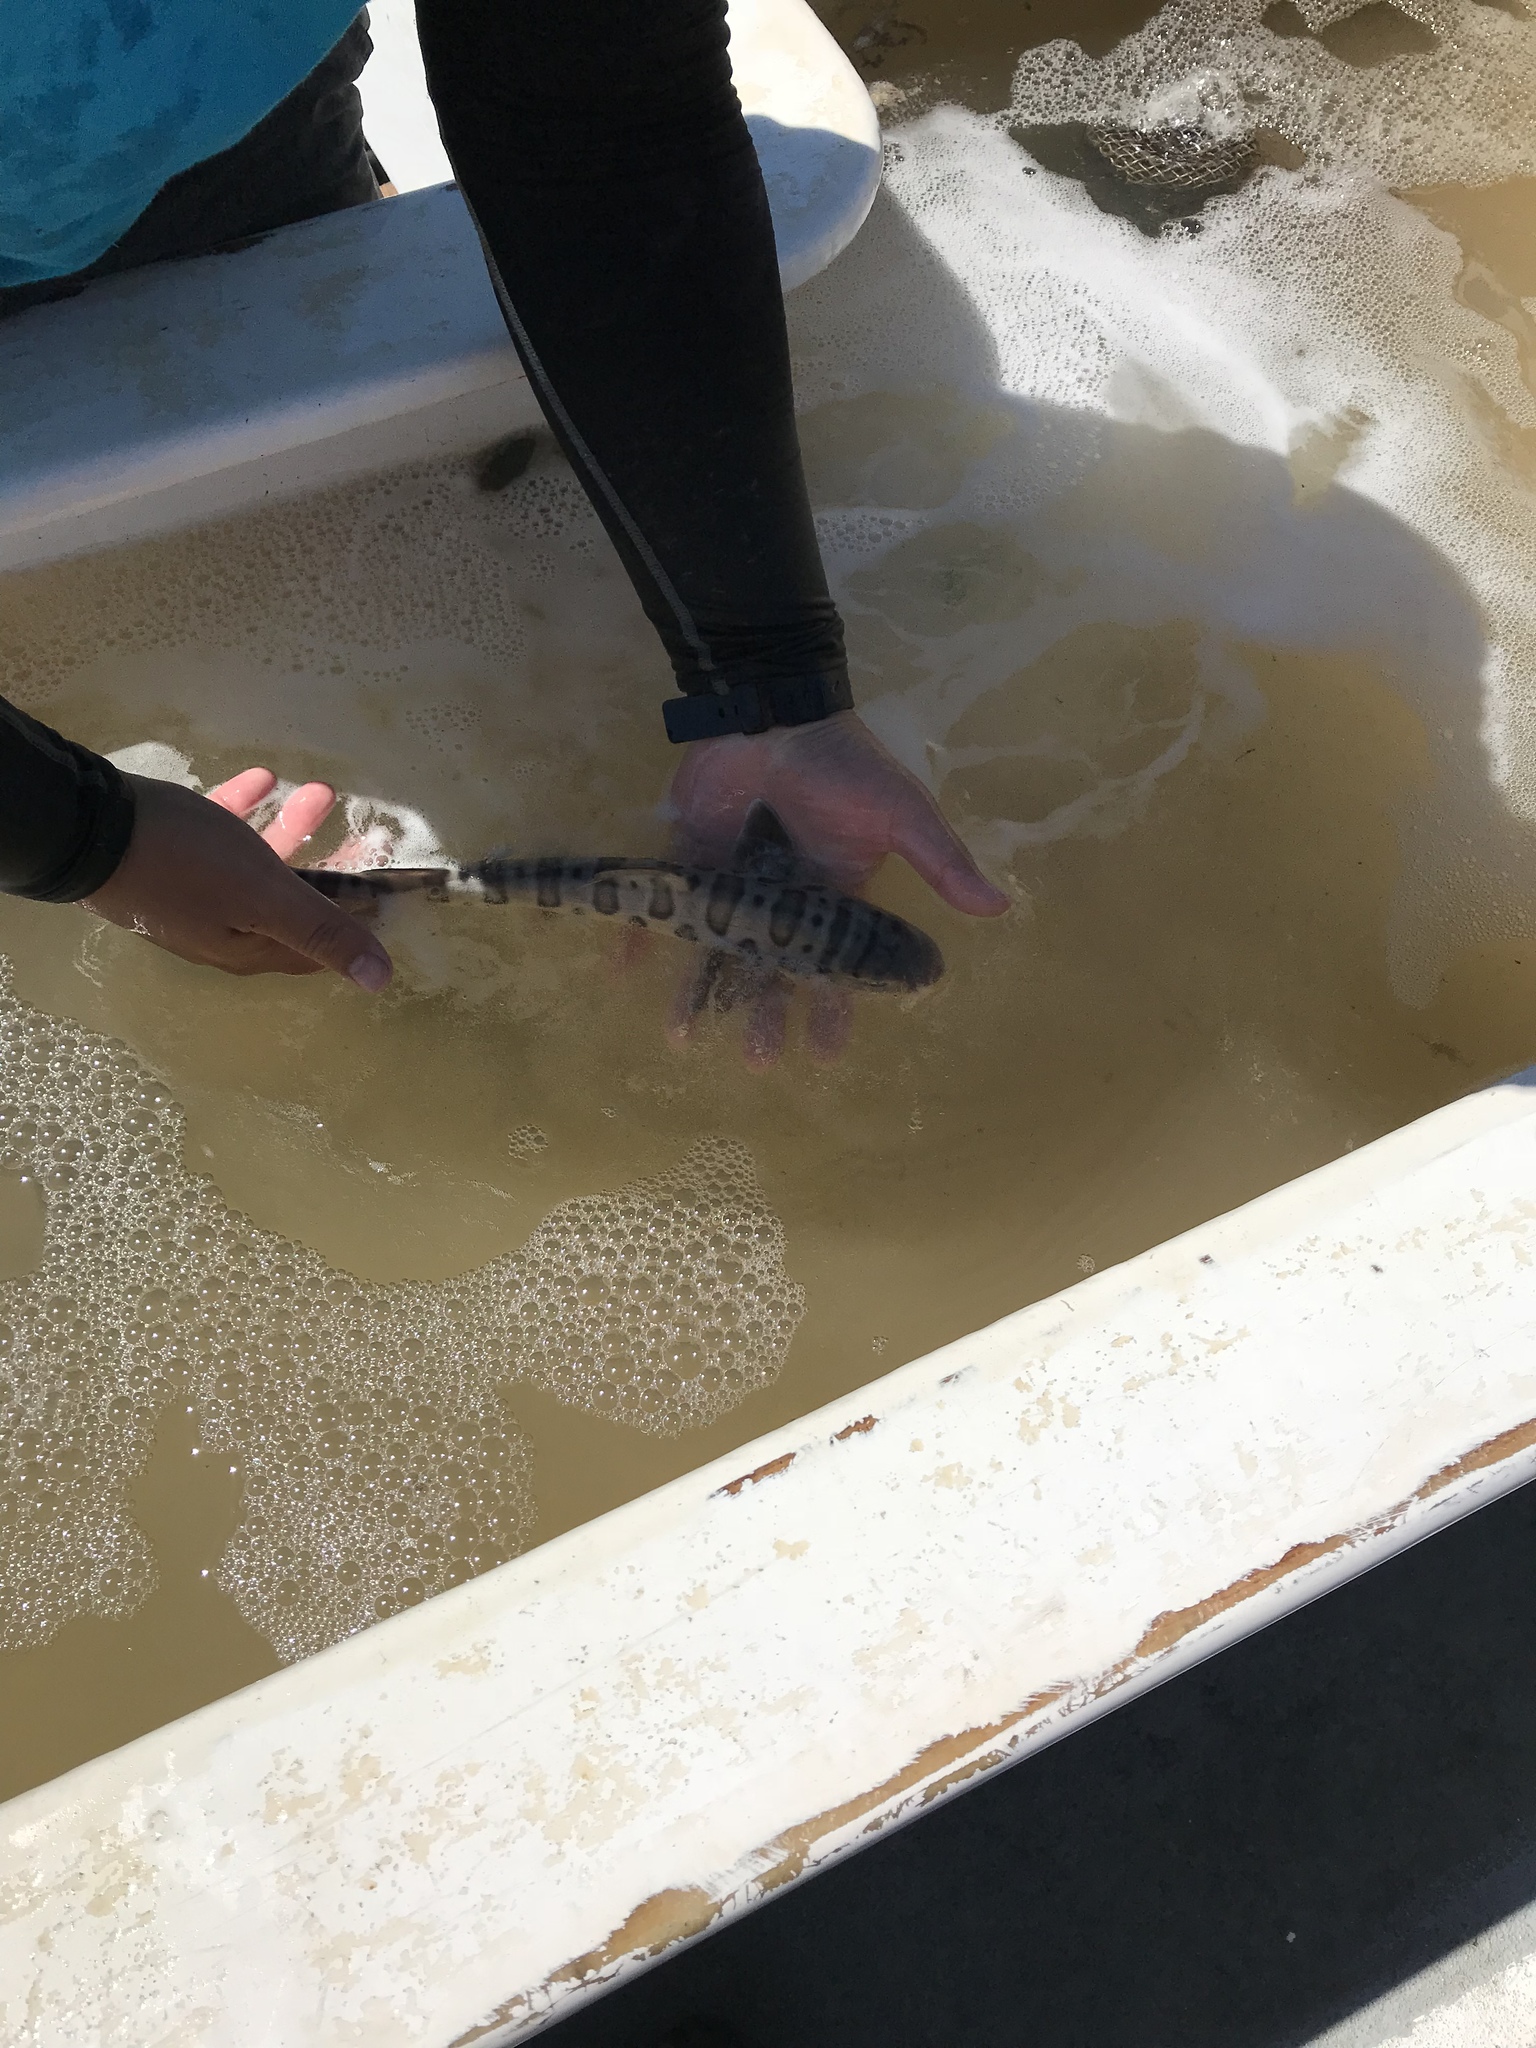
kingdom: Animalia
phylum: Chordata
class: Elasmobranchii
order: Carcharhiniformes
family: Triakidae
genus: Triakis
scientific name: Triakis semifasciata
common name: Leopard shark
